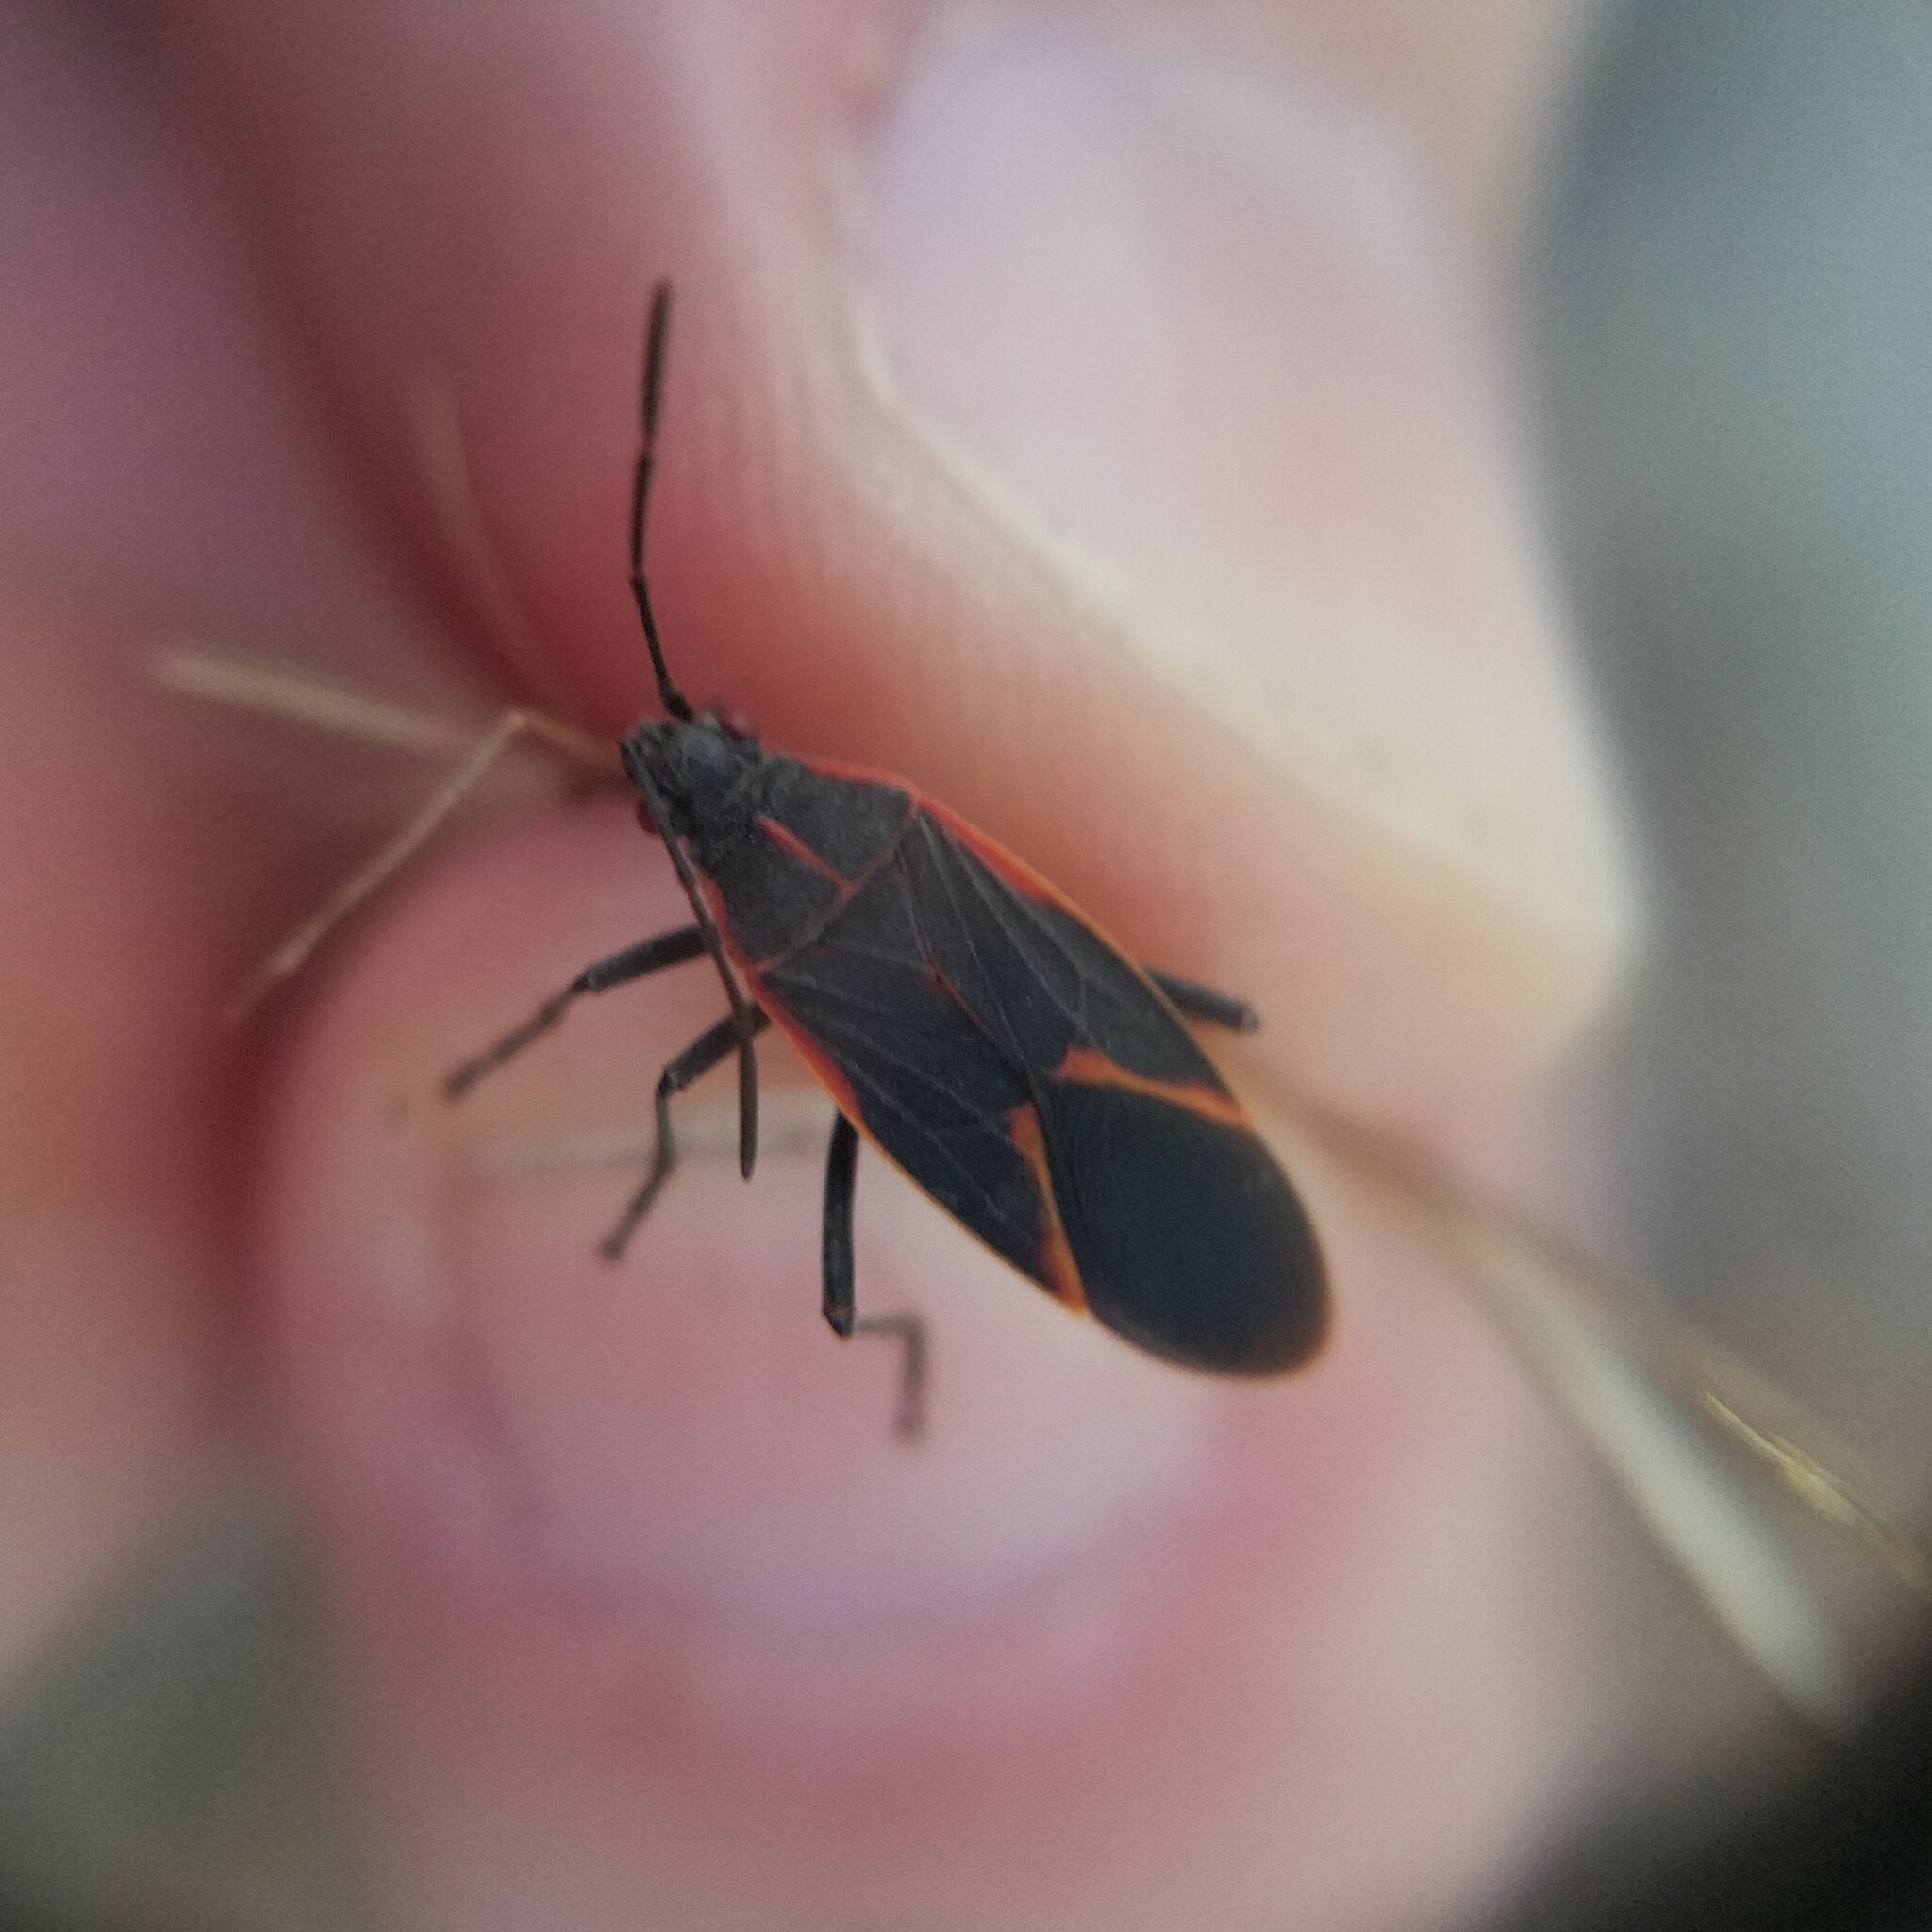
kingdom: Animalia
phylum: Arthropoda
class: Insecta
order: Hemiptera
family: Rhopalidae
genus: Boisea
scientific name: Boisea trivittata
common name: Boxelder bug
